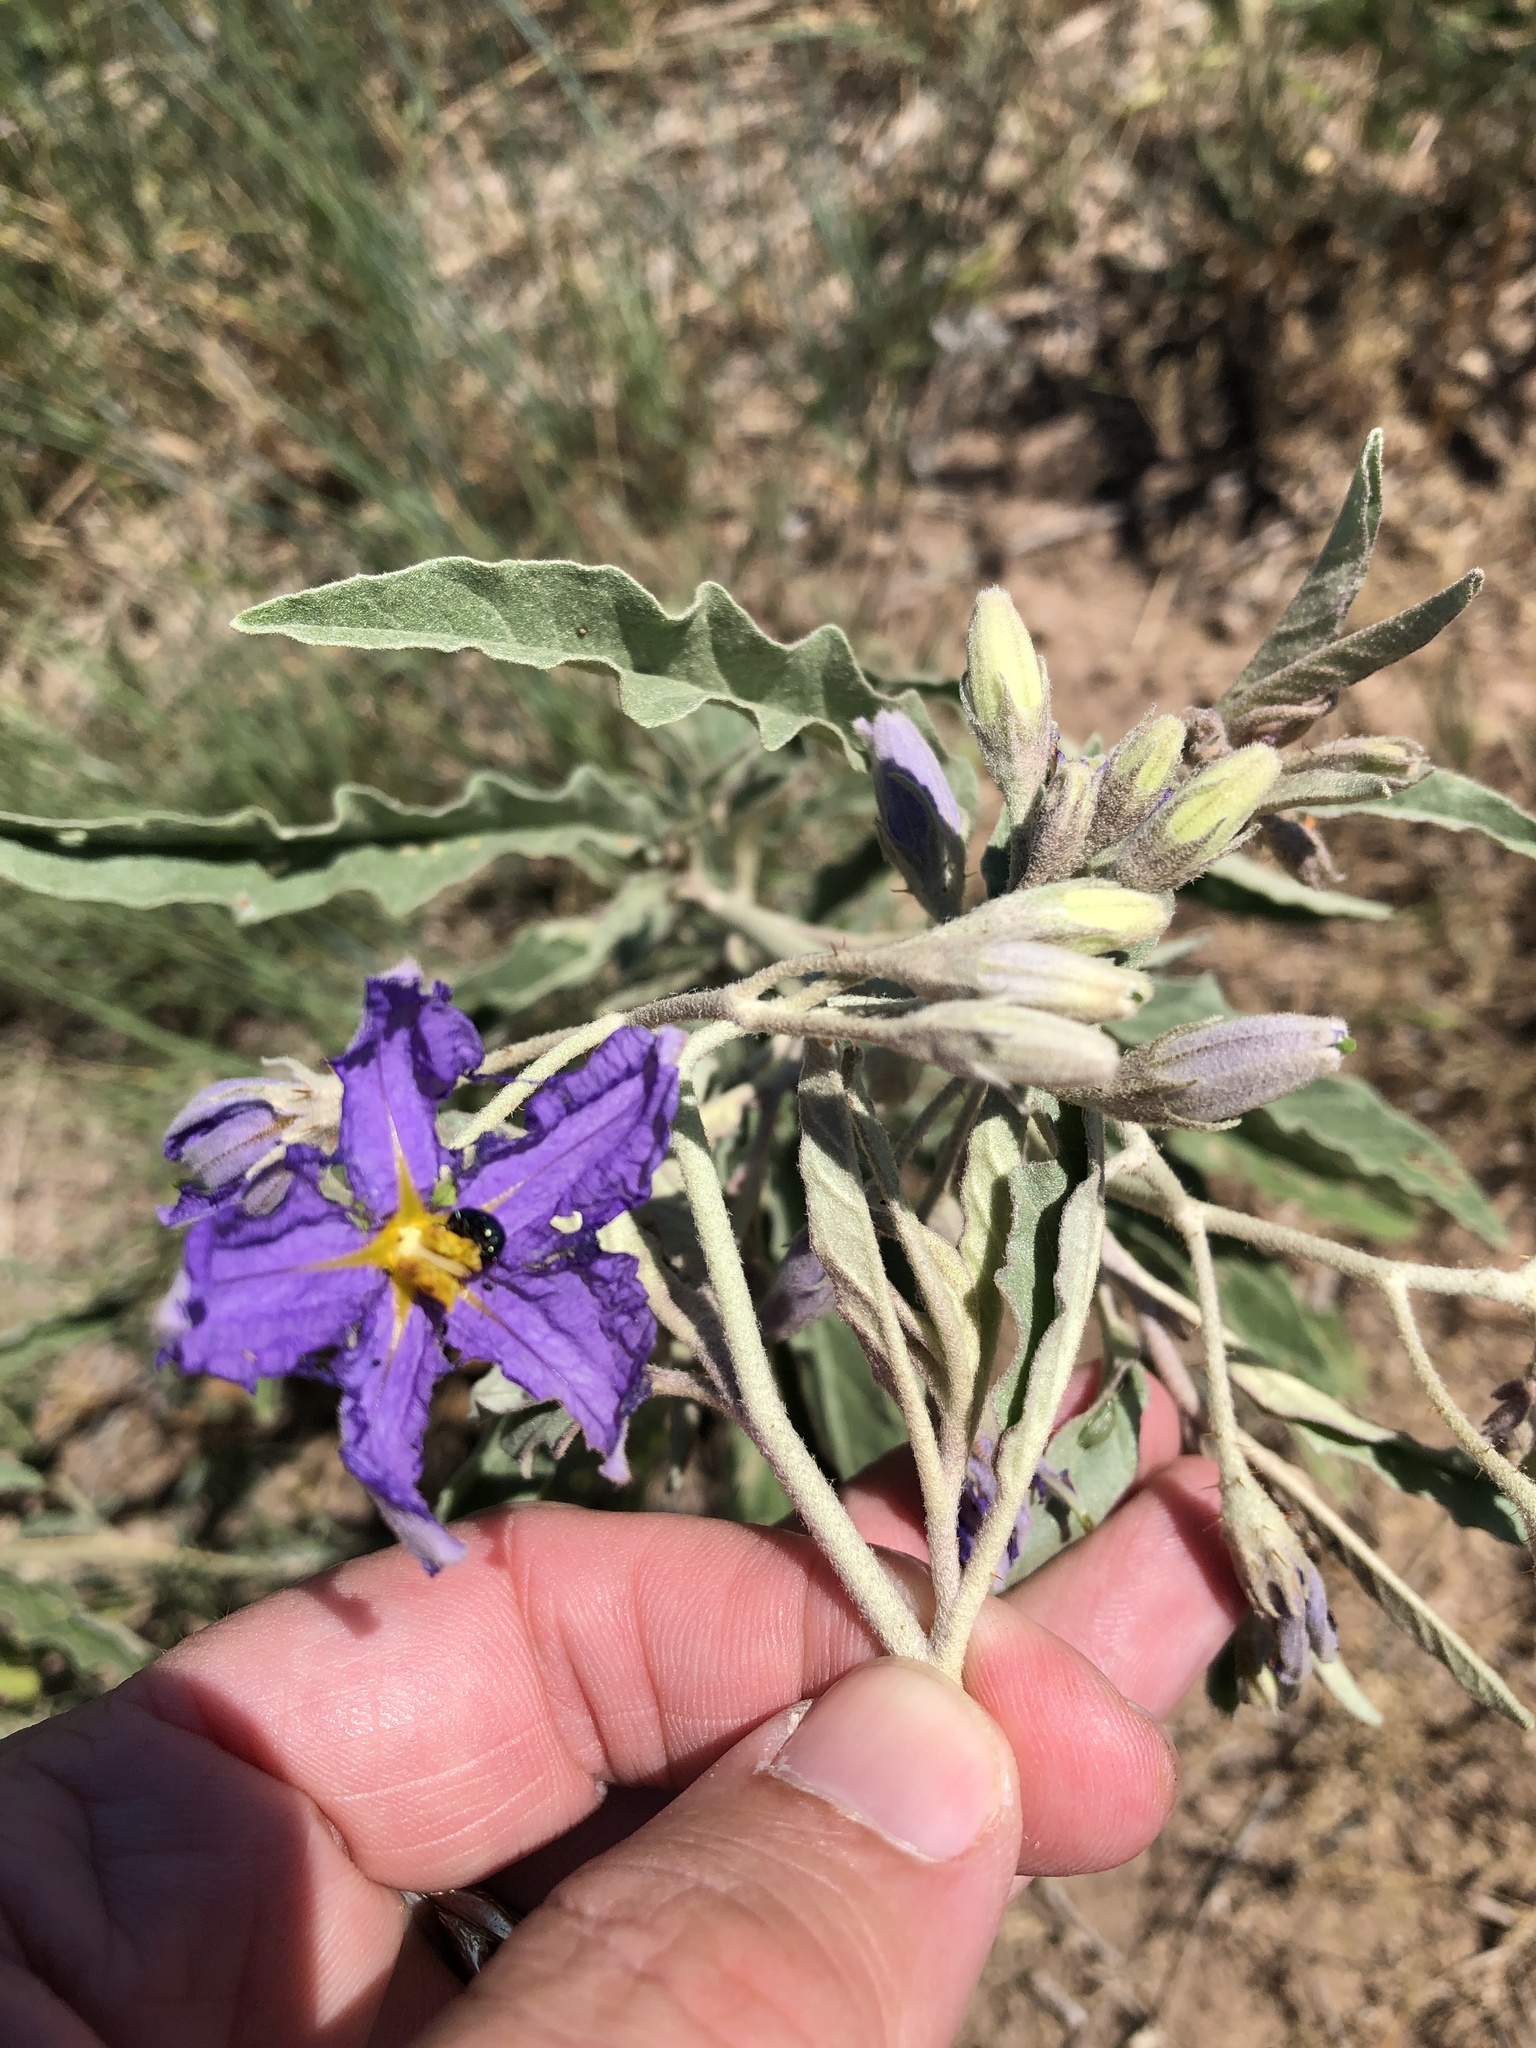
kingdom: Plantae
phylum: Tracheophyta
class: Magnoliopsida
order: Solanales
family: Solanaceae
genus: Solanum
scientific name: Solanum elaeagnifolium
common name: Silverleaf nightshade
